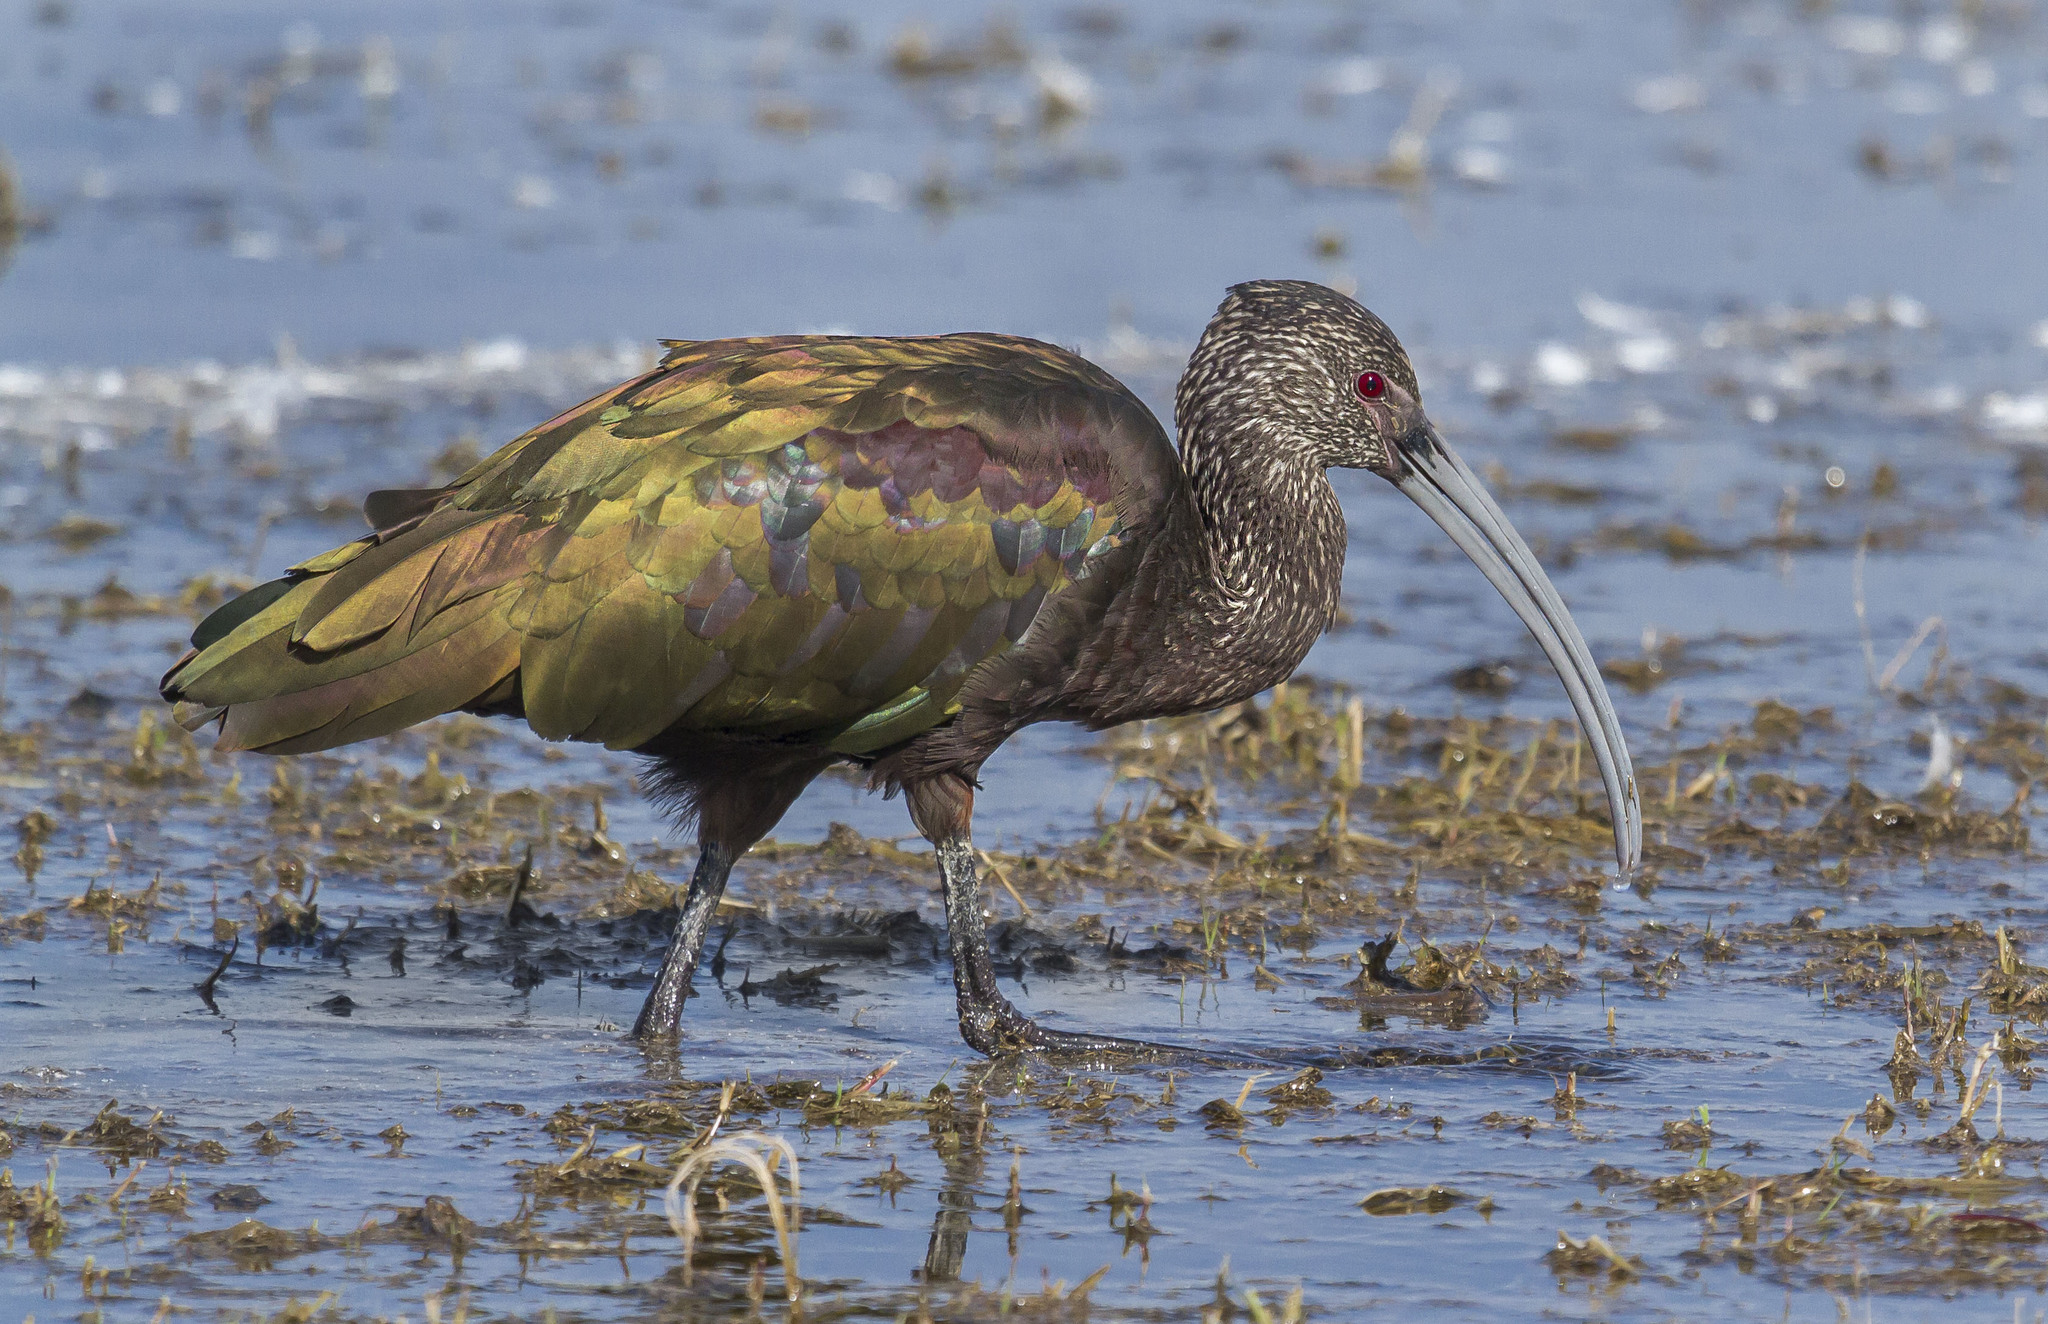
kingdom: Animalia
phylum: Chordata
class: Aves
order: Pelecaniformes
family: Threskiornithidae
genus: Plegadis
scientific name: Plegadis chihi
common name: White-faced ibis
